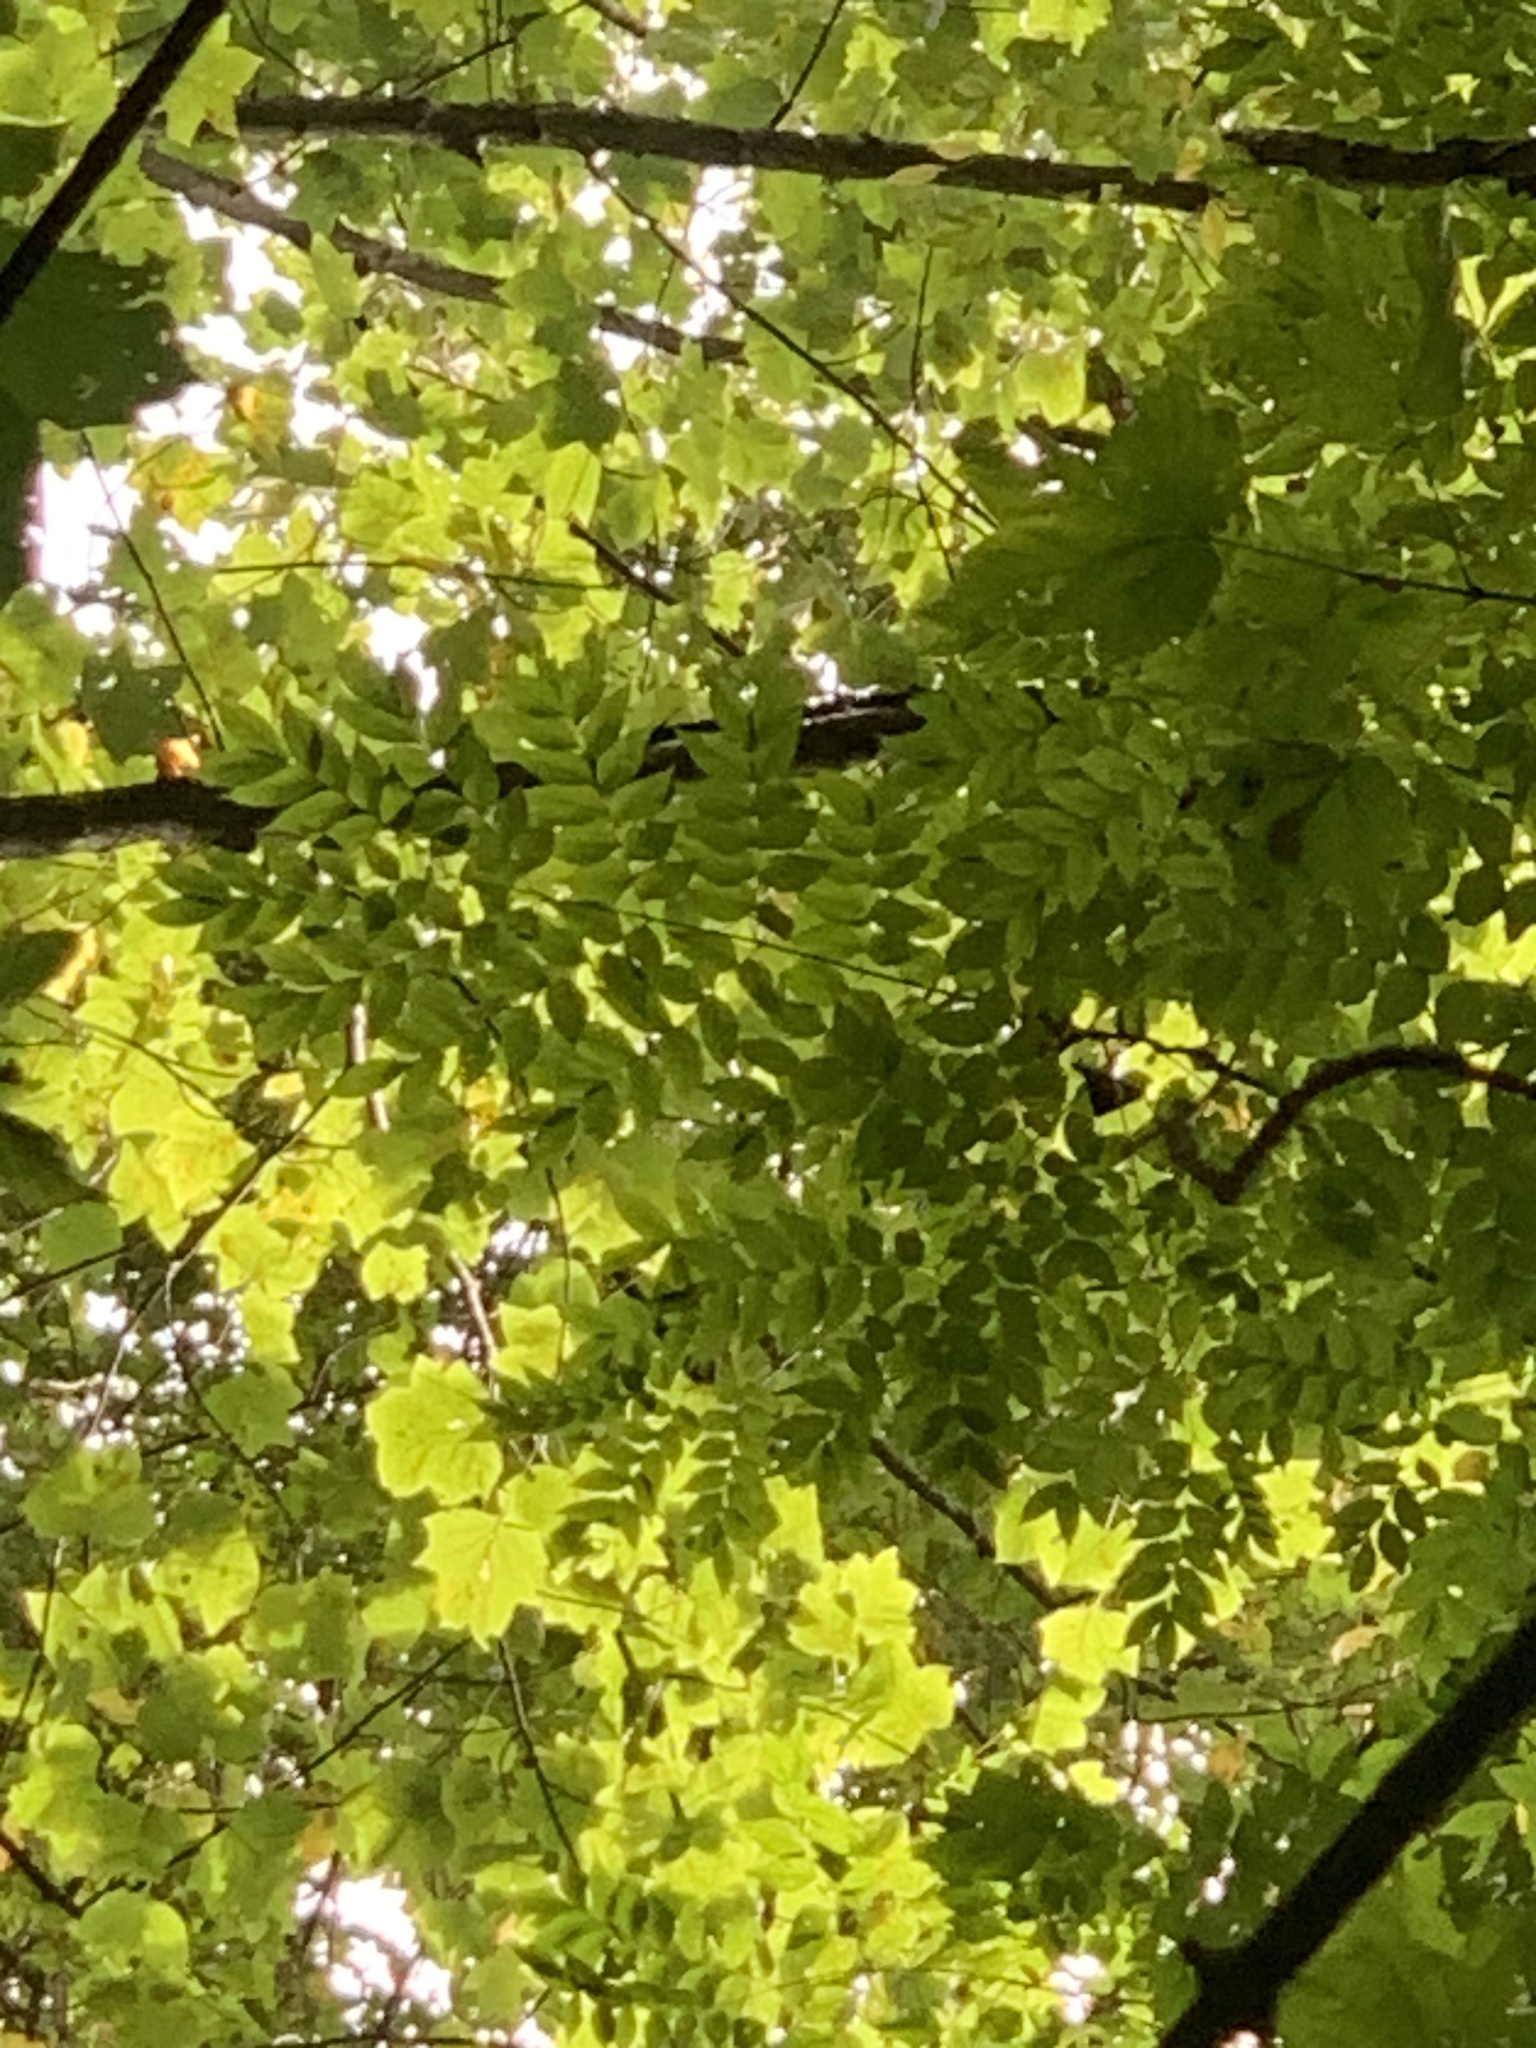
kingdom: Plantae
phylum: Tracheophyta
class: Magnoliopsida
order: Fabales
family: Fabaceae
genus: Gymnocladus
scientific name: Gymnocladus dioicus
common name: Kentucky coffee-tree
